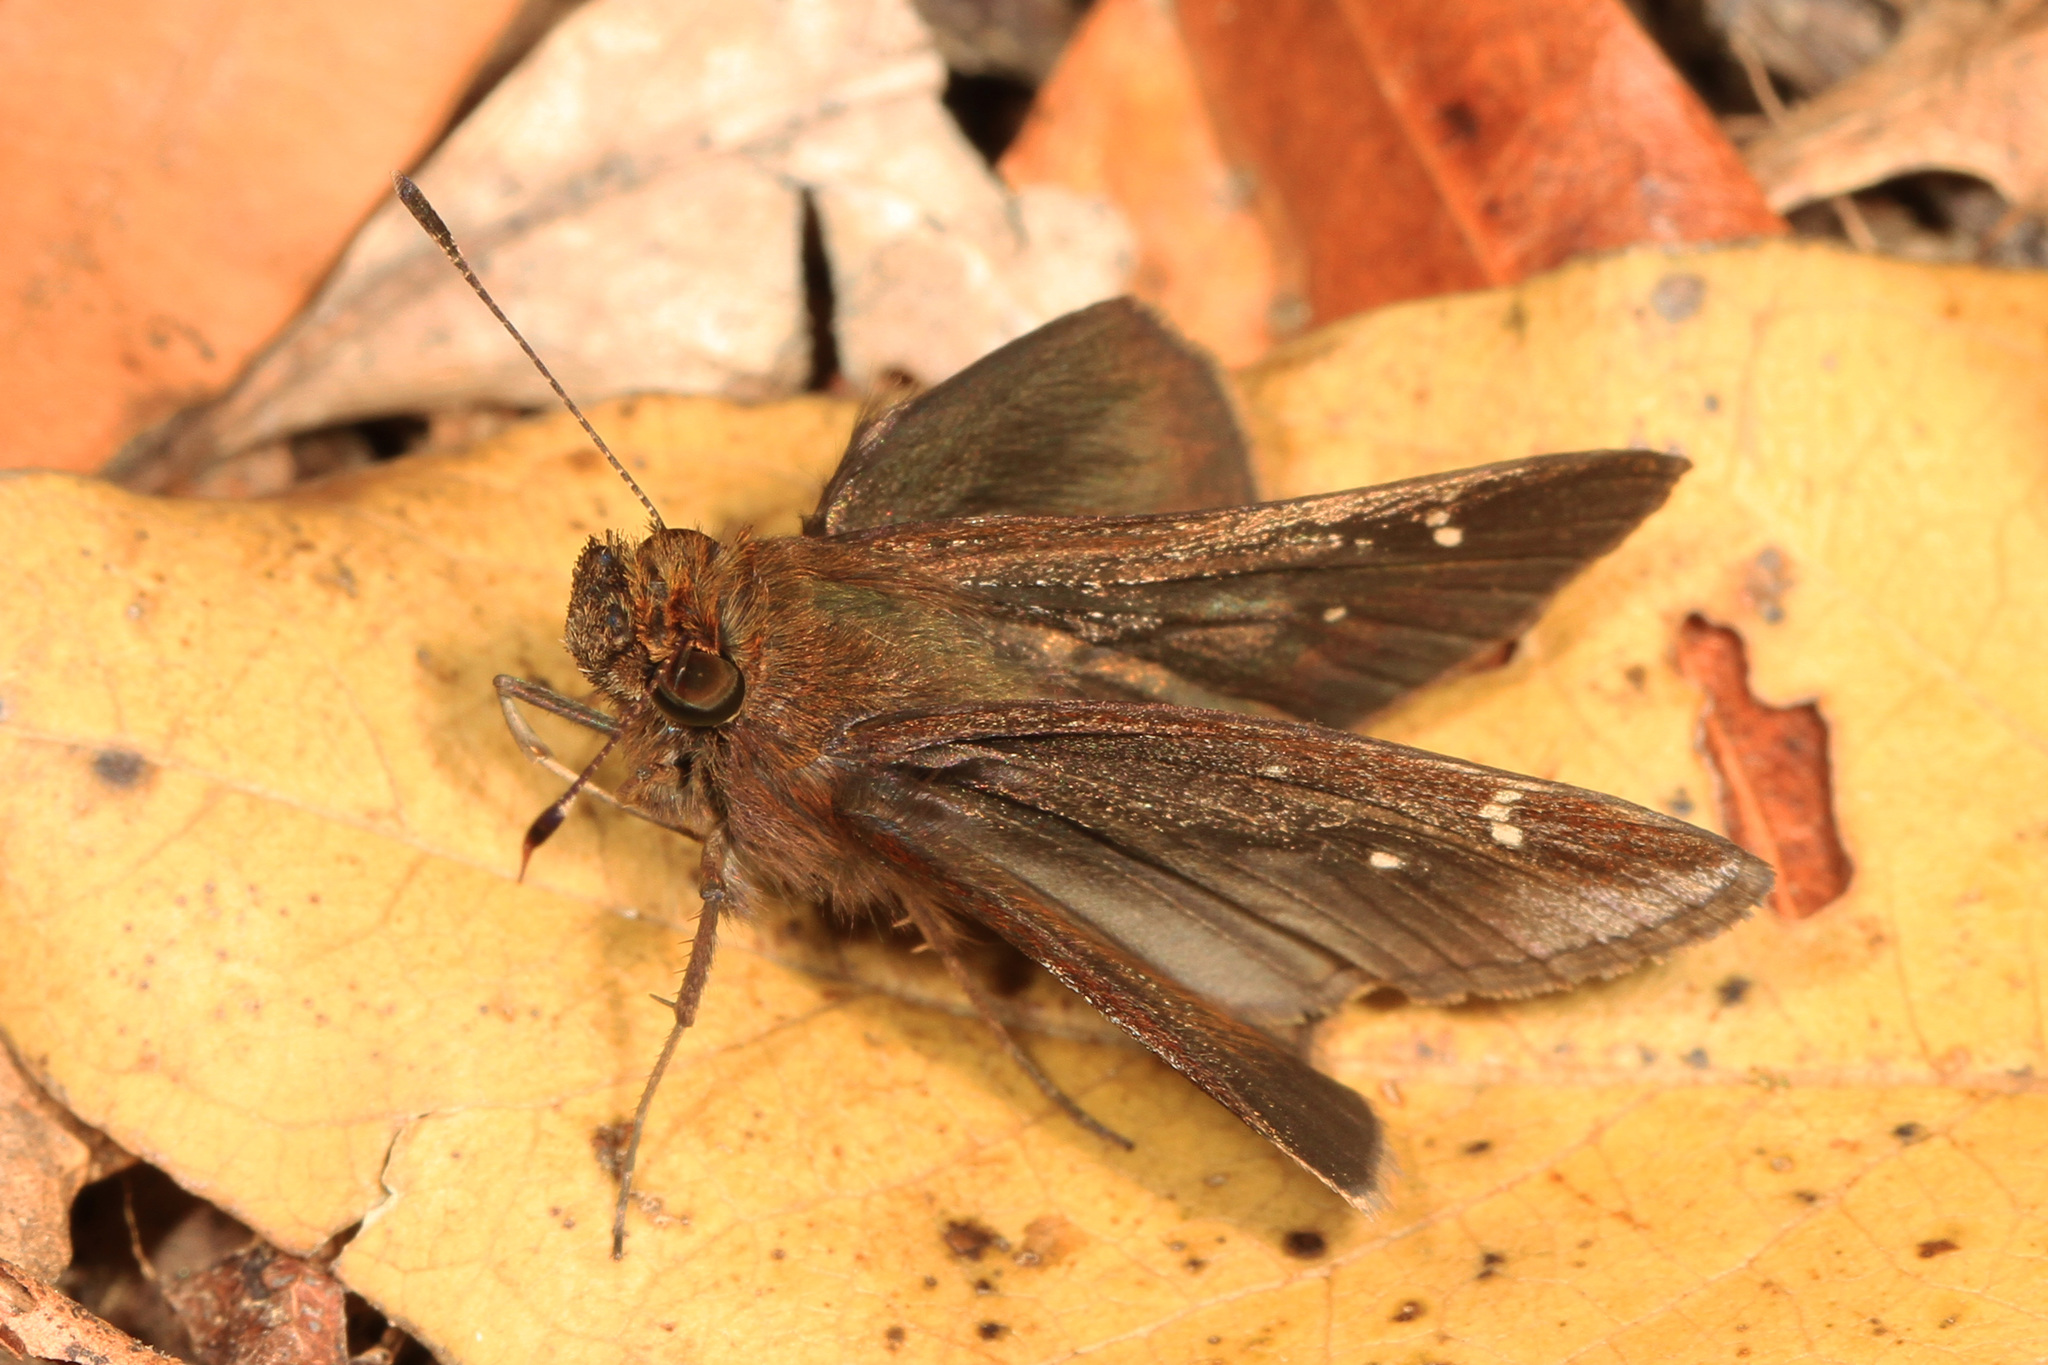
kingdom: Animalia
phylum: Arthropoda
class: Insecta
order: Lepidoptera
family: Hesperiidae
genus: Lerema
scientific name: Lerema accius
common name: Clouded skipper
